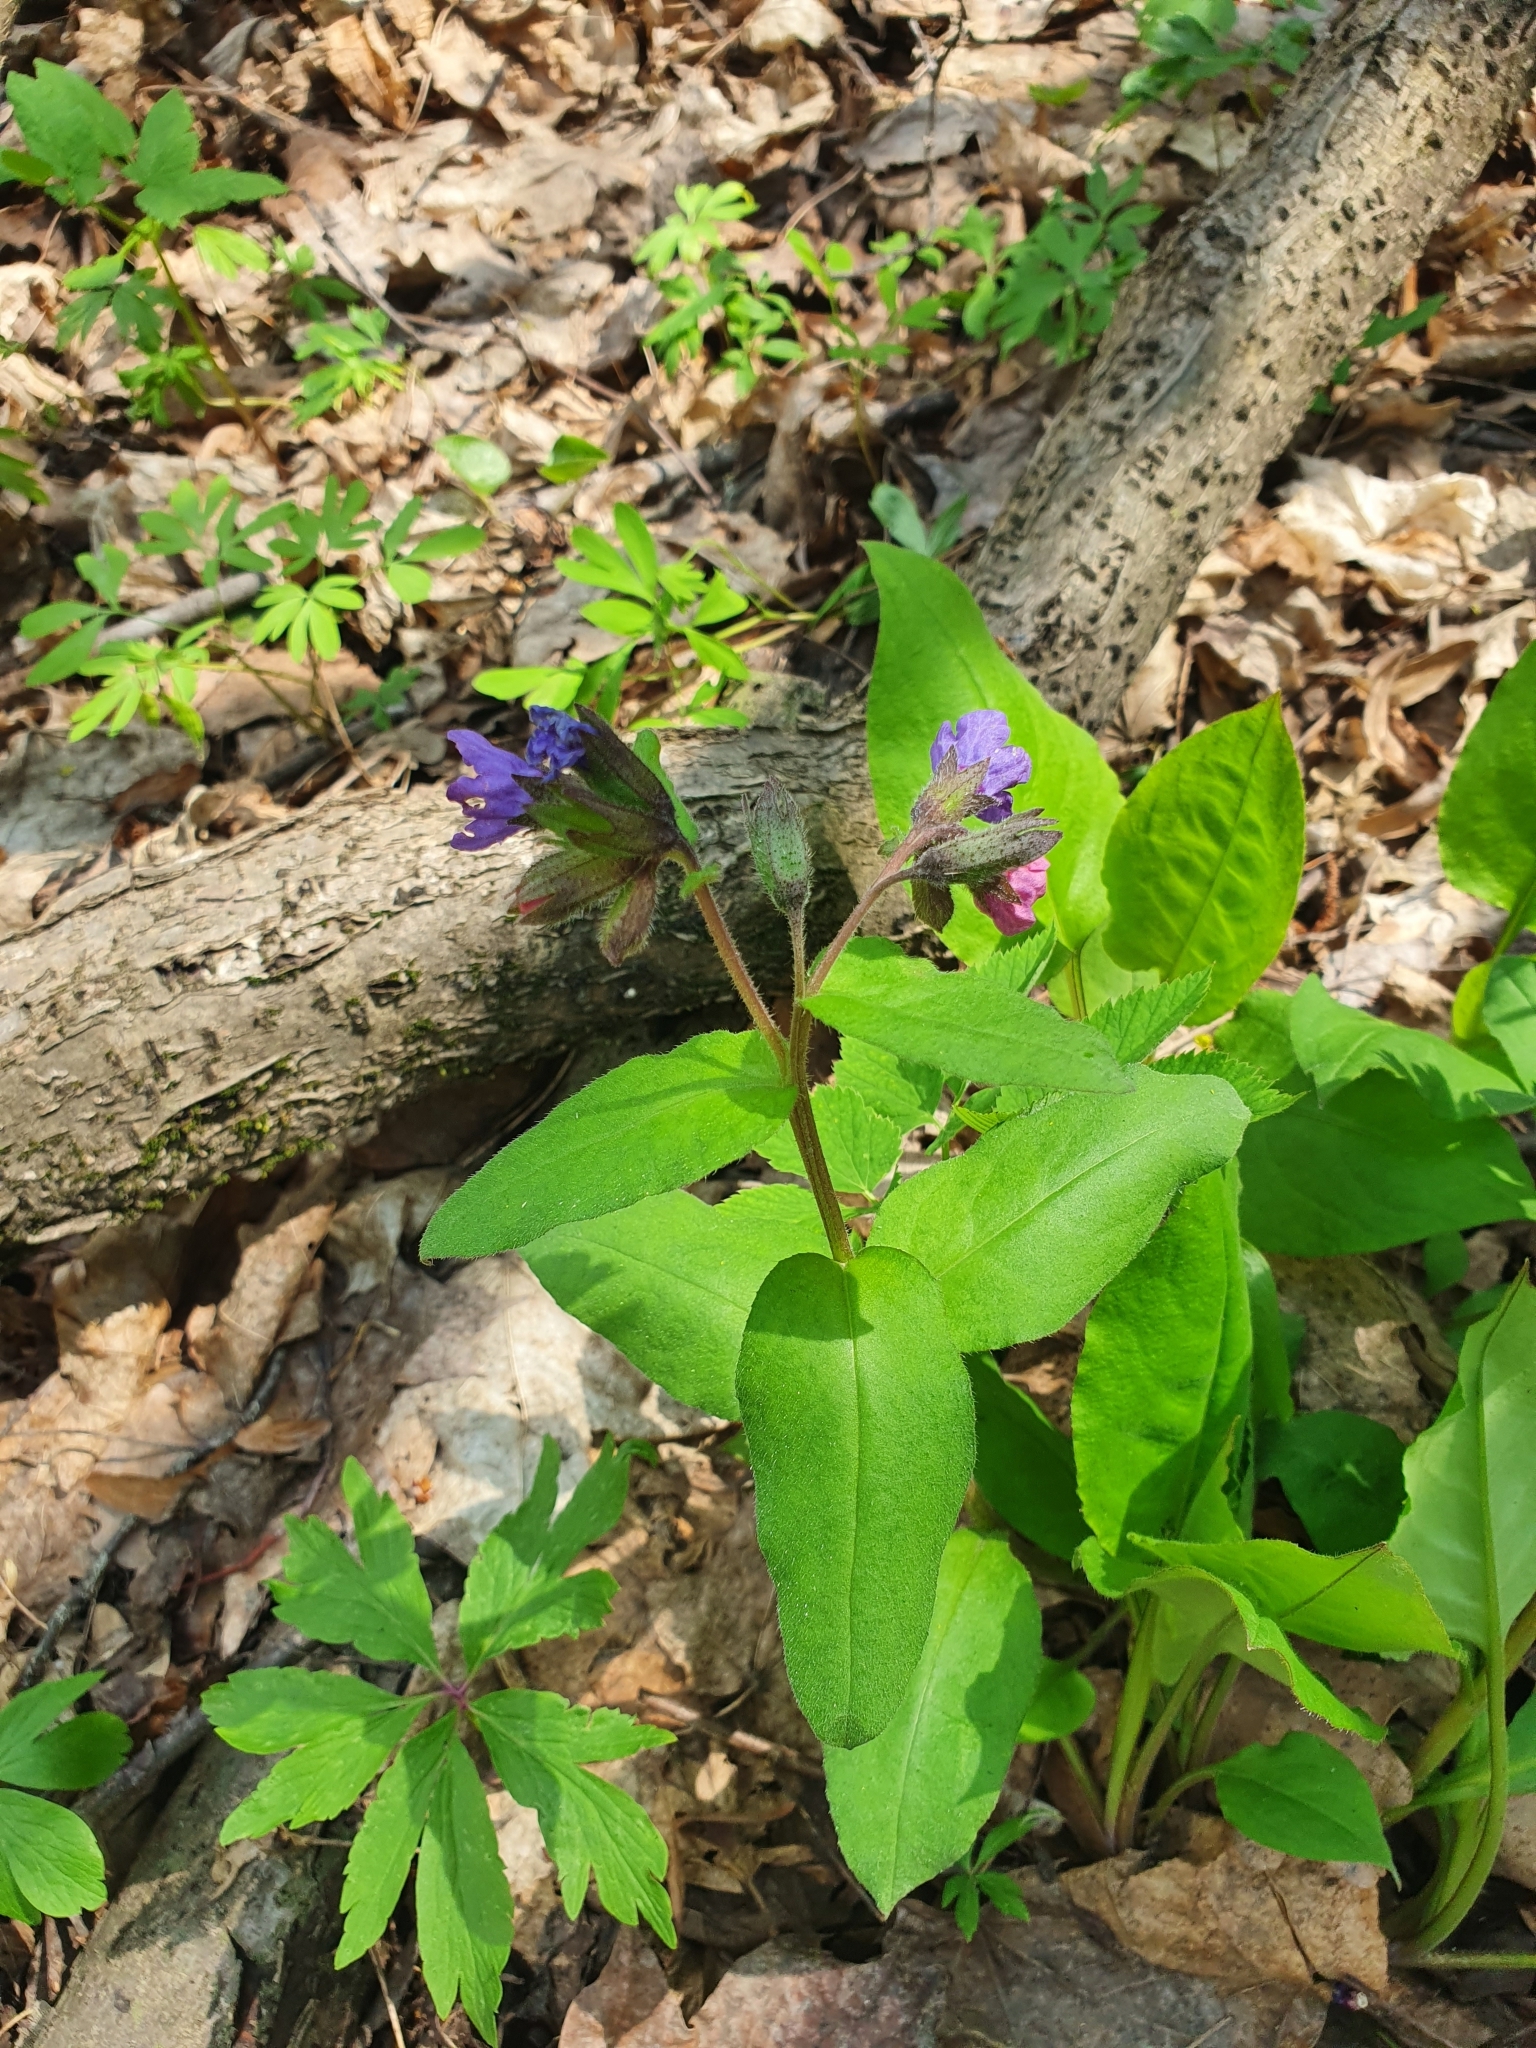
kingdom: Plantae
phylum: Tracheophyta
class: Magnoliopsida
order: Boraginales
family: Boraginaceae
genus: Pulmonaria
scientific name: Pulmonaria obscura
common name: Suffolk lungwort
